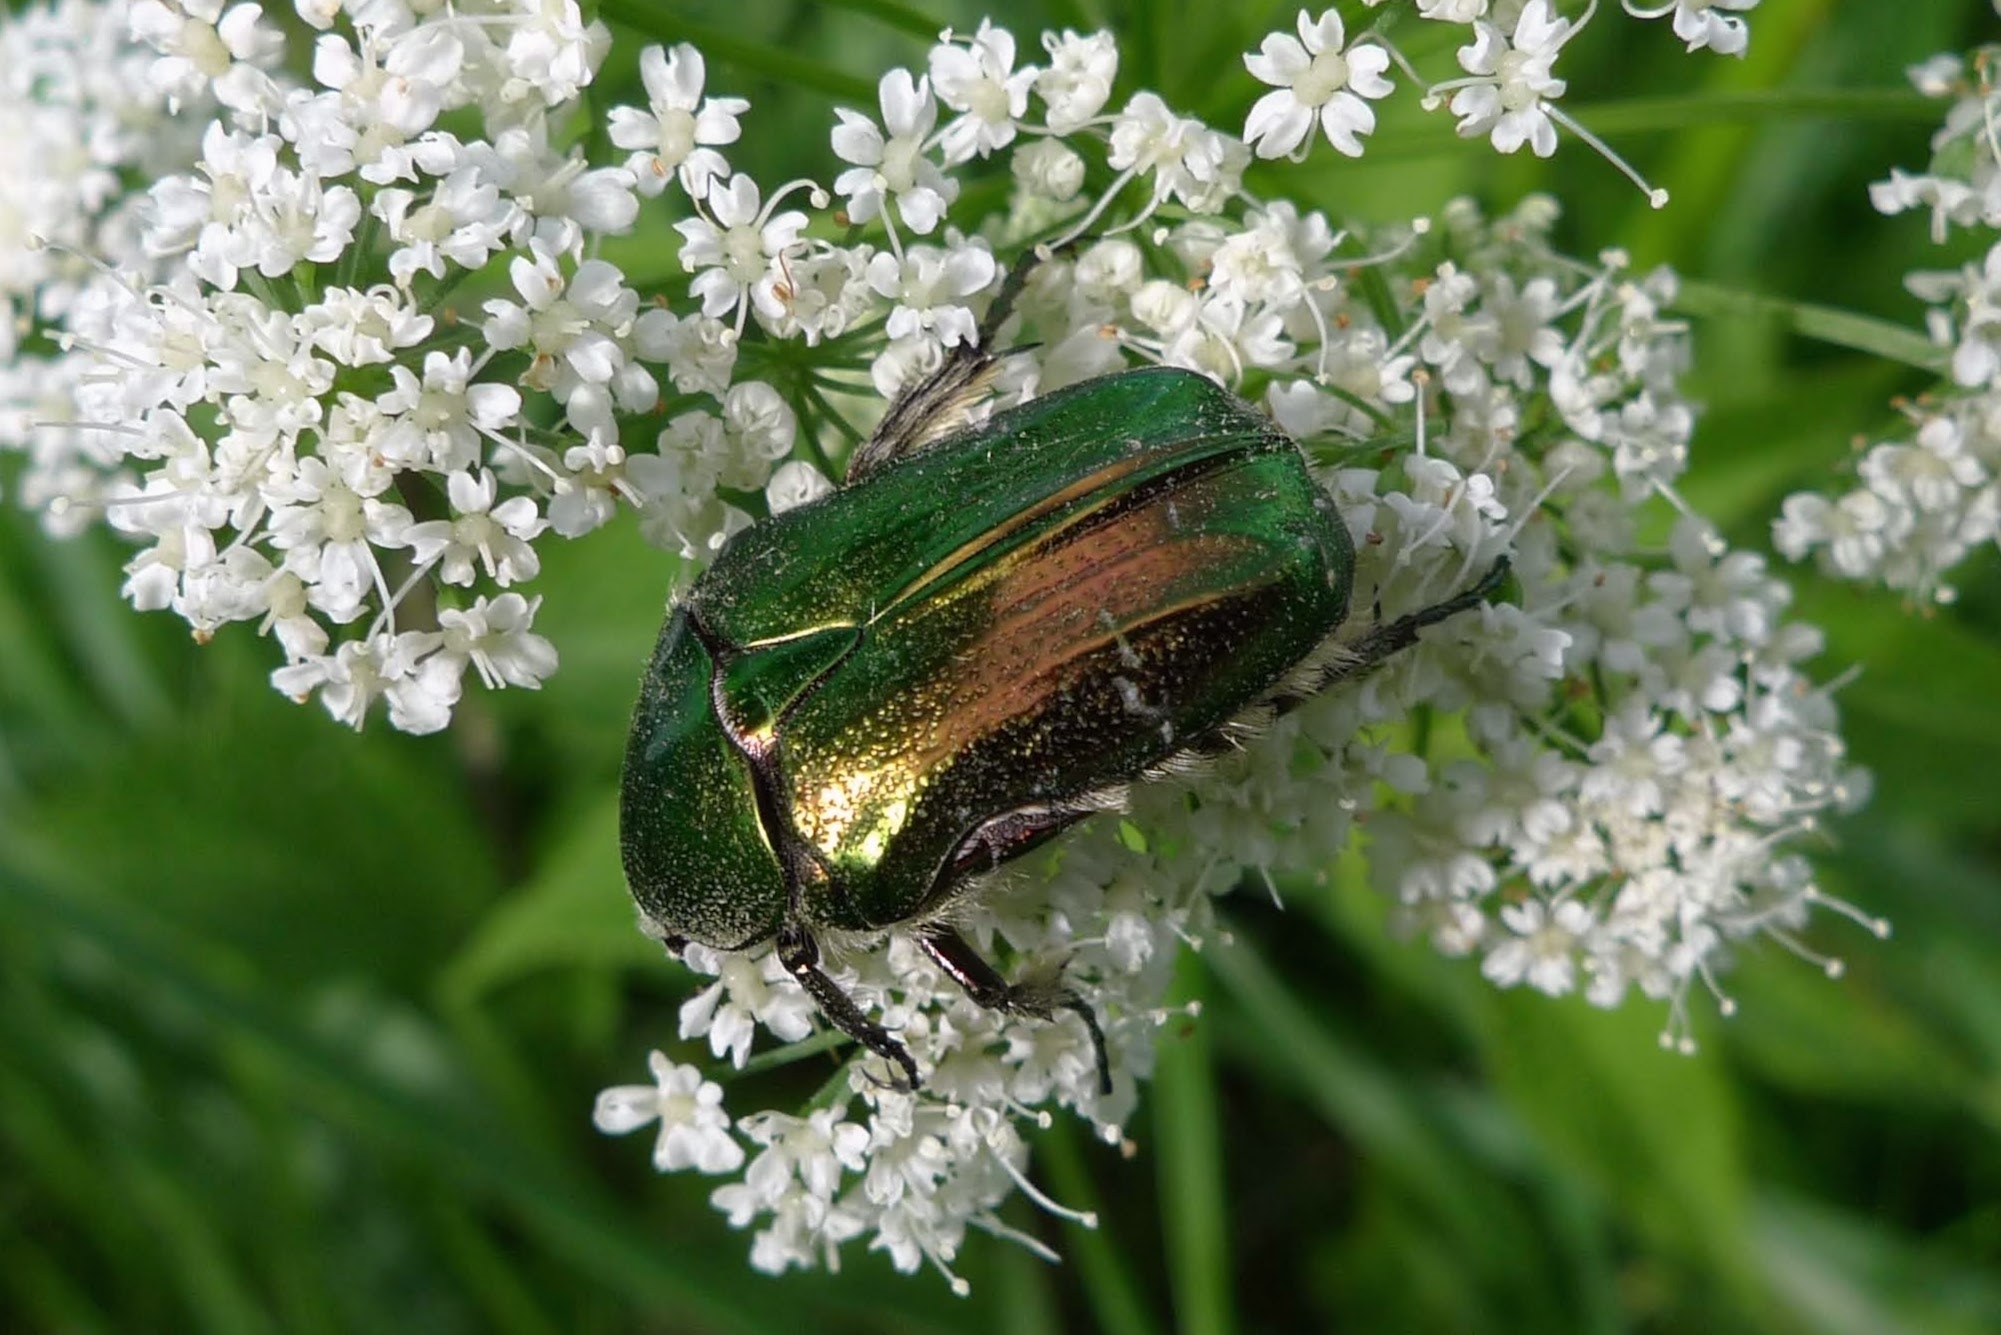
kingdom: Animalia
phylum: Arthropoda
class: Insecta
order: Coleoptera
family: Scarabaeidae
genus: Cetonia
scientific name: Cetonia aurata
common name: Rose chafer
